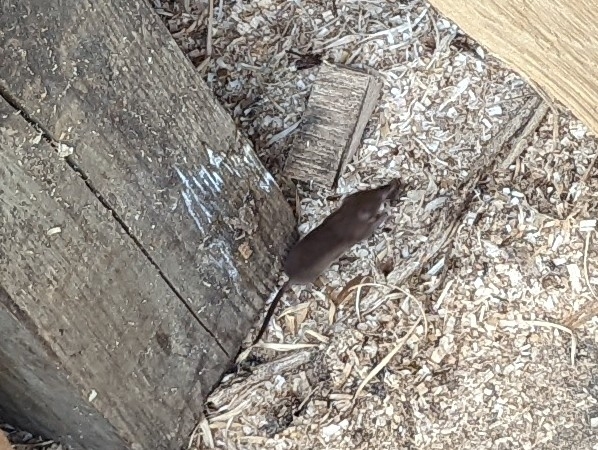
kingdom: Animalia
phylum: Chordata
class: Mammalia
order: Soricomorpha
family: Soricidae
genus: Sorex
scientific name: Sorex minutus
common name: Eurasian pygmy shrew
